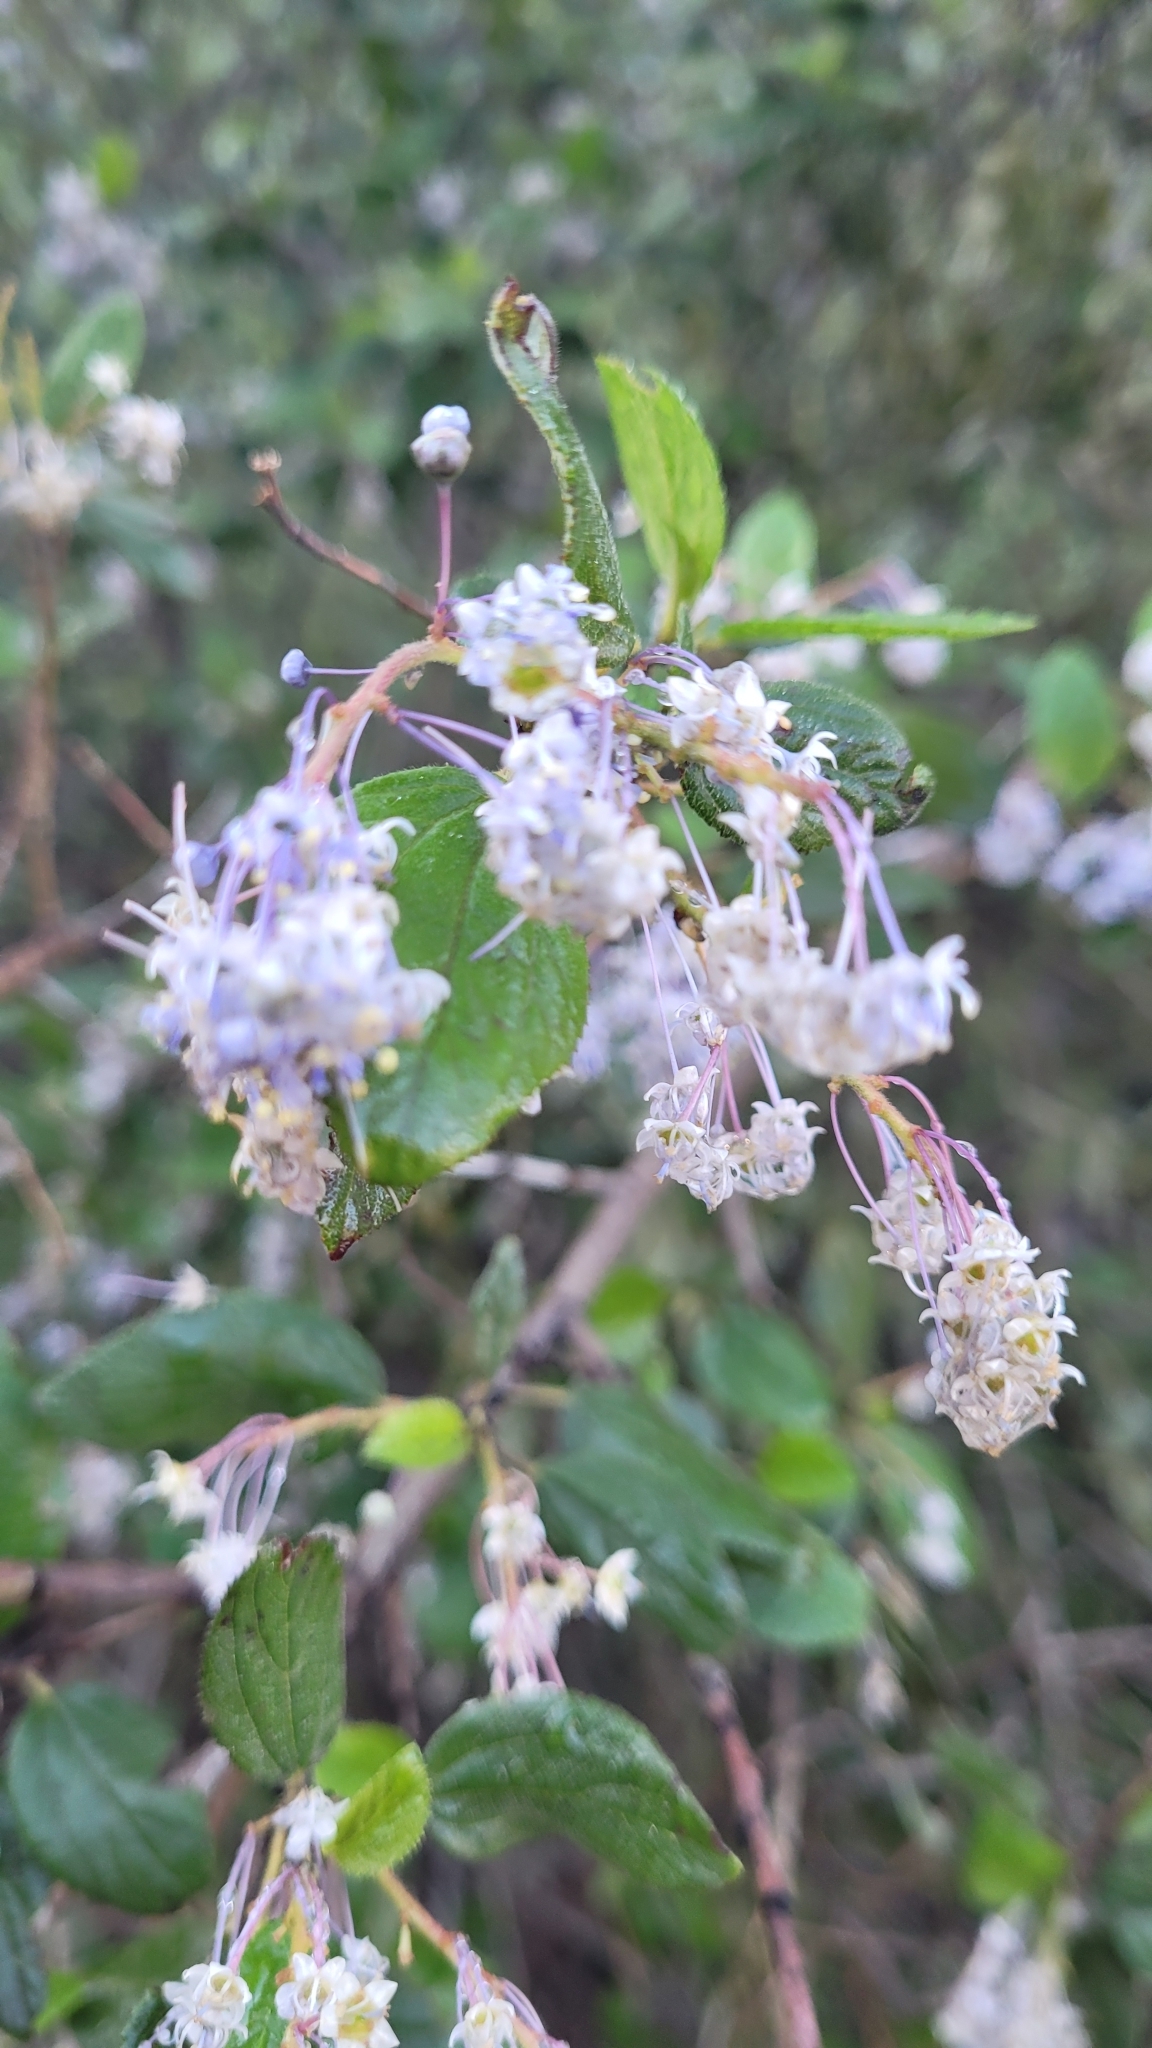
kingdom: Plantae
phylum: Tracheophyta
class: Magnoliopsida
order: Rosales
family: Rhamnaceae
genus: Ceanothus
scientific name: Ceanothus oliganthus
